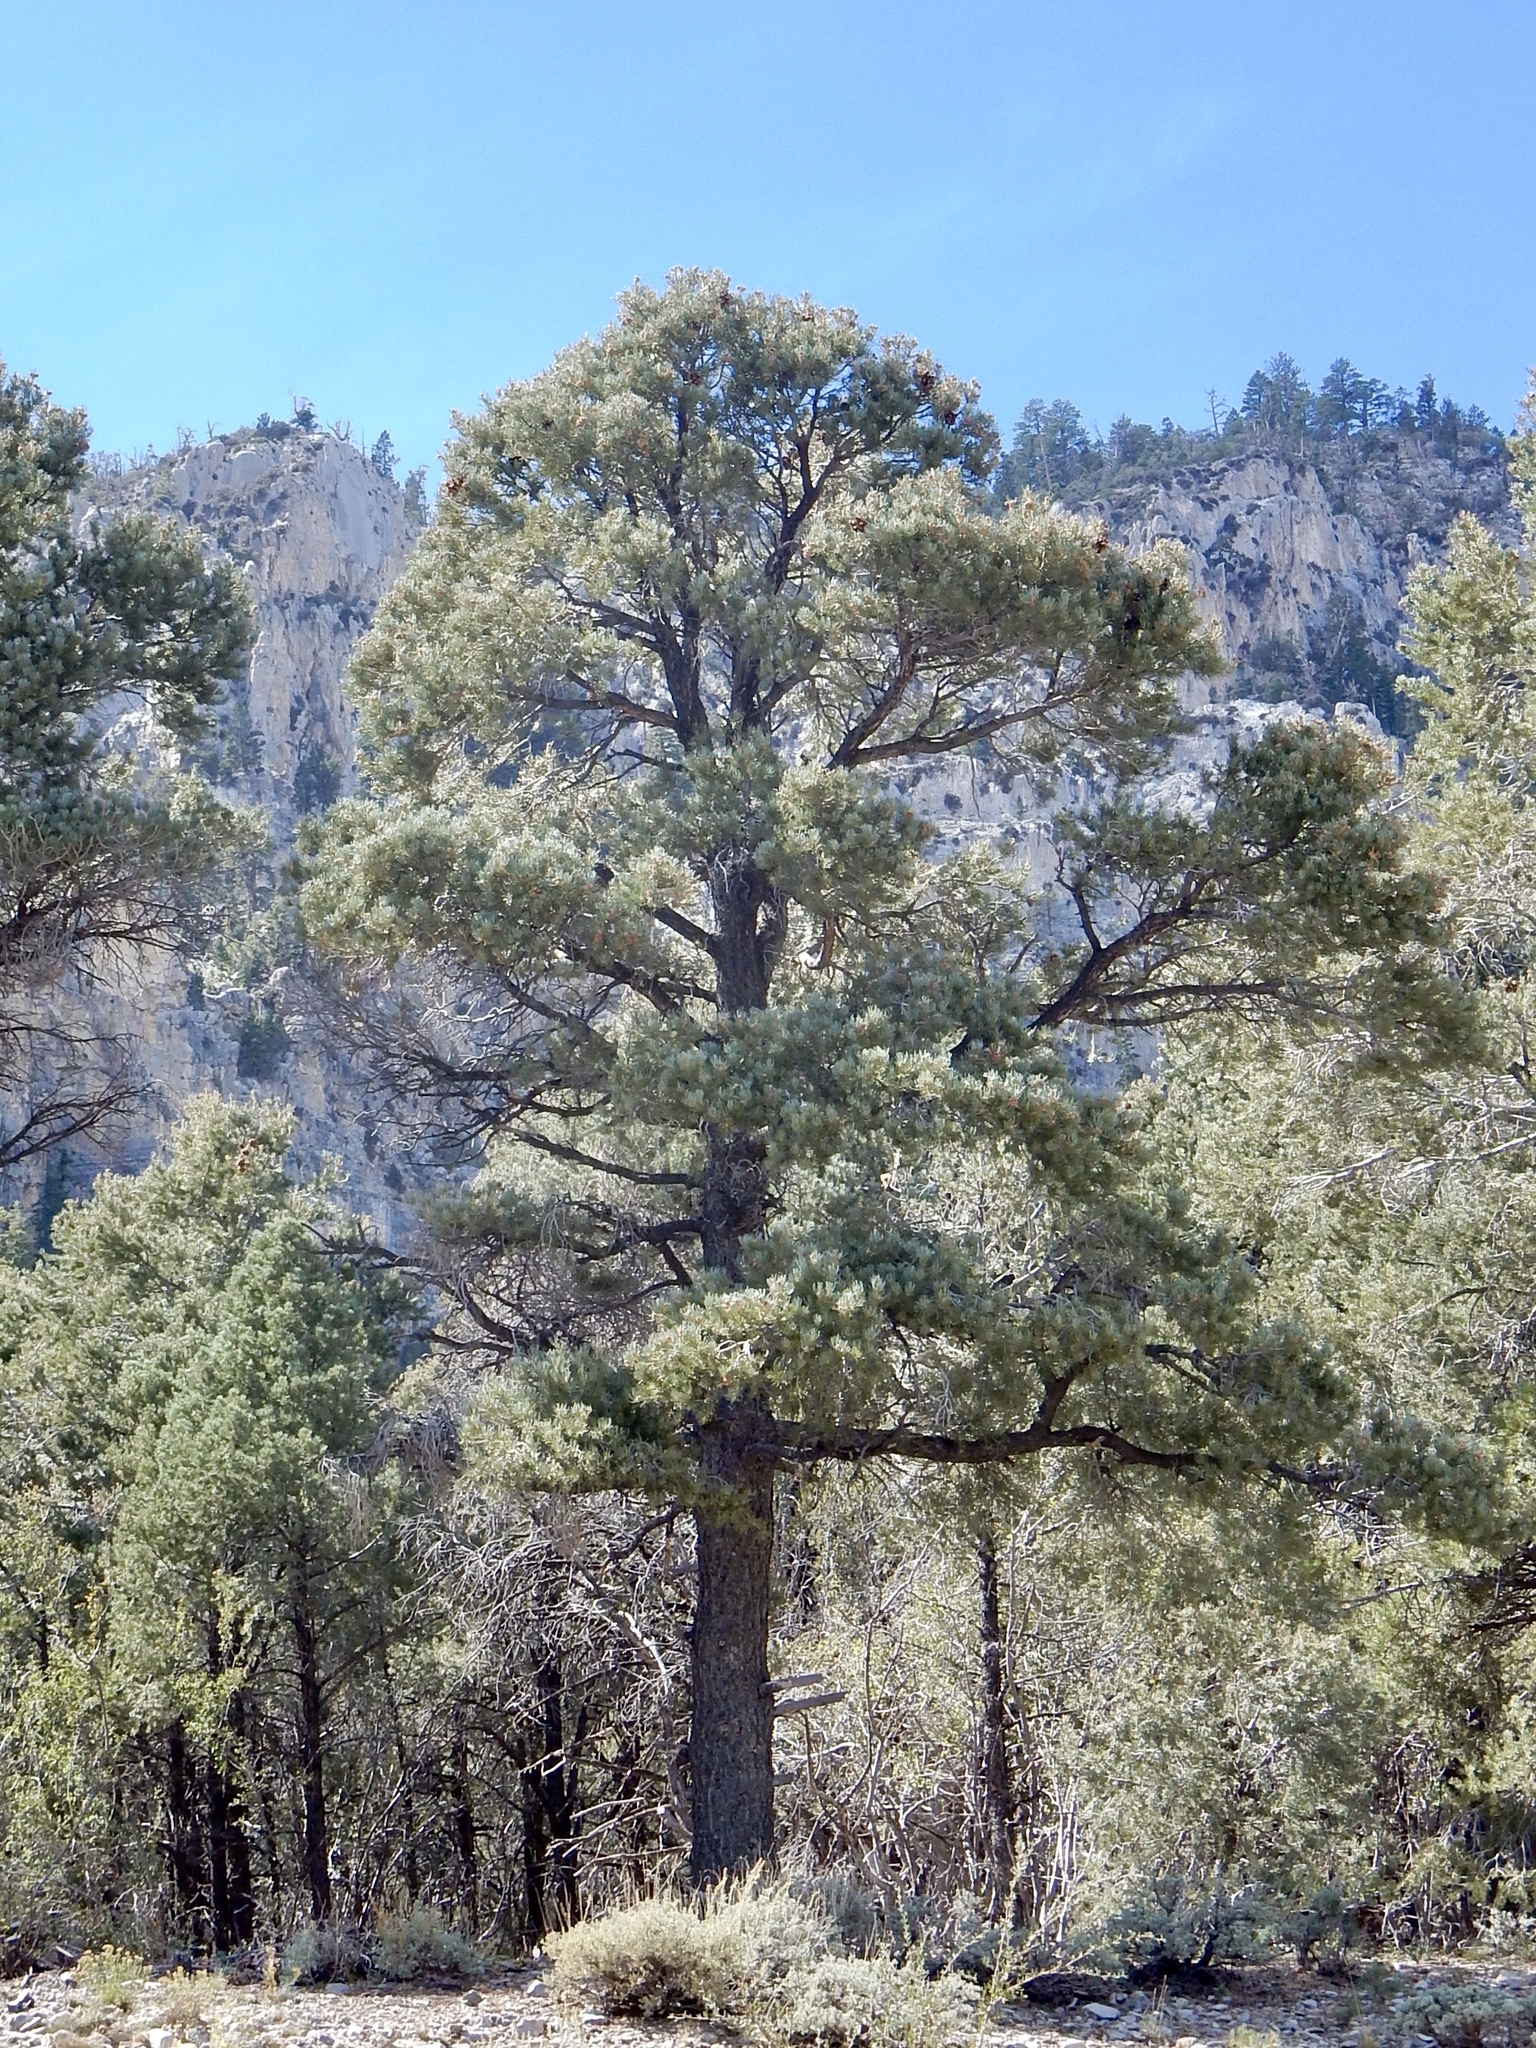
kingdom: Plantae
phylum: Tracheophyta
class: Pinopsida
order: Pinales
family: Pinaceae
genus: Pinus
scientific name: Pinus monophylla
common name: One-leaved nut pine
